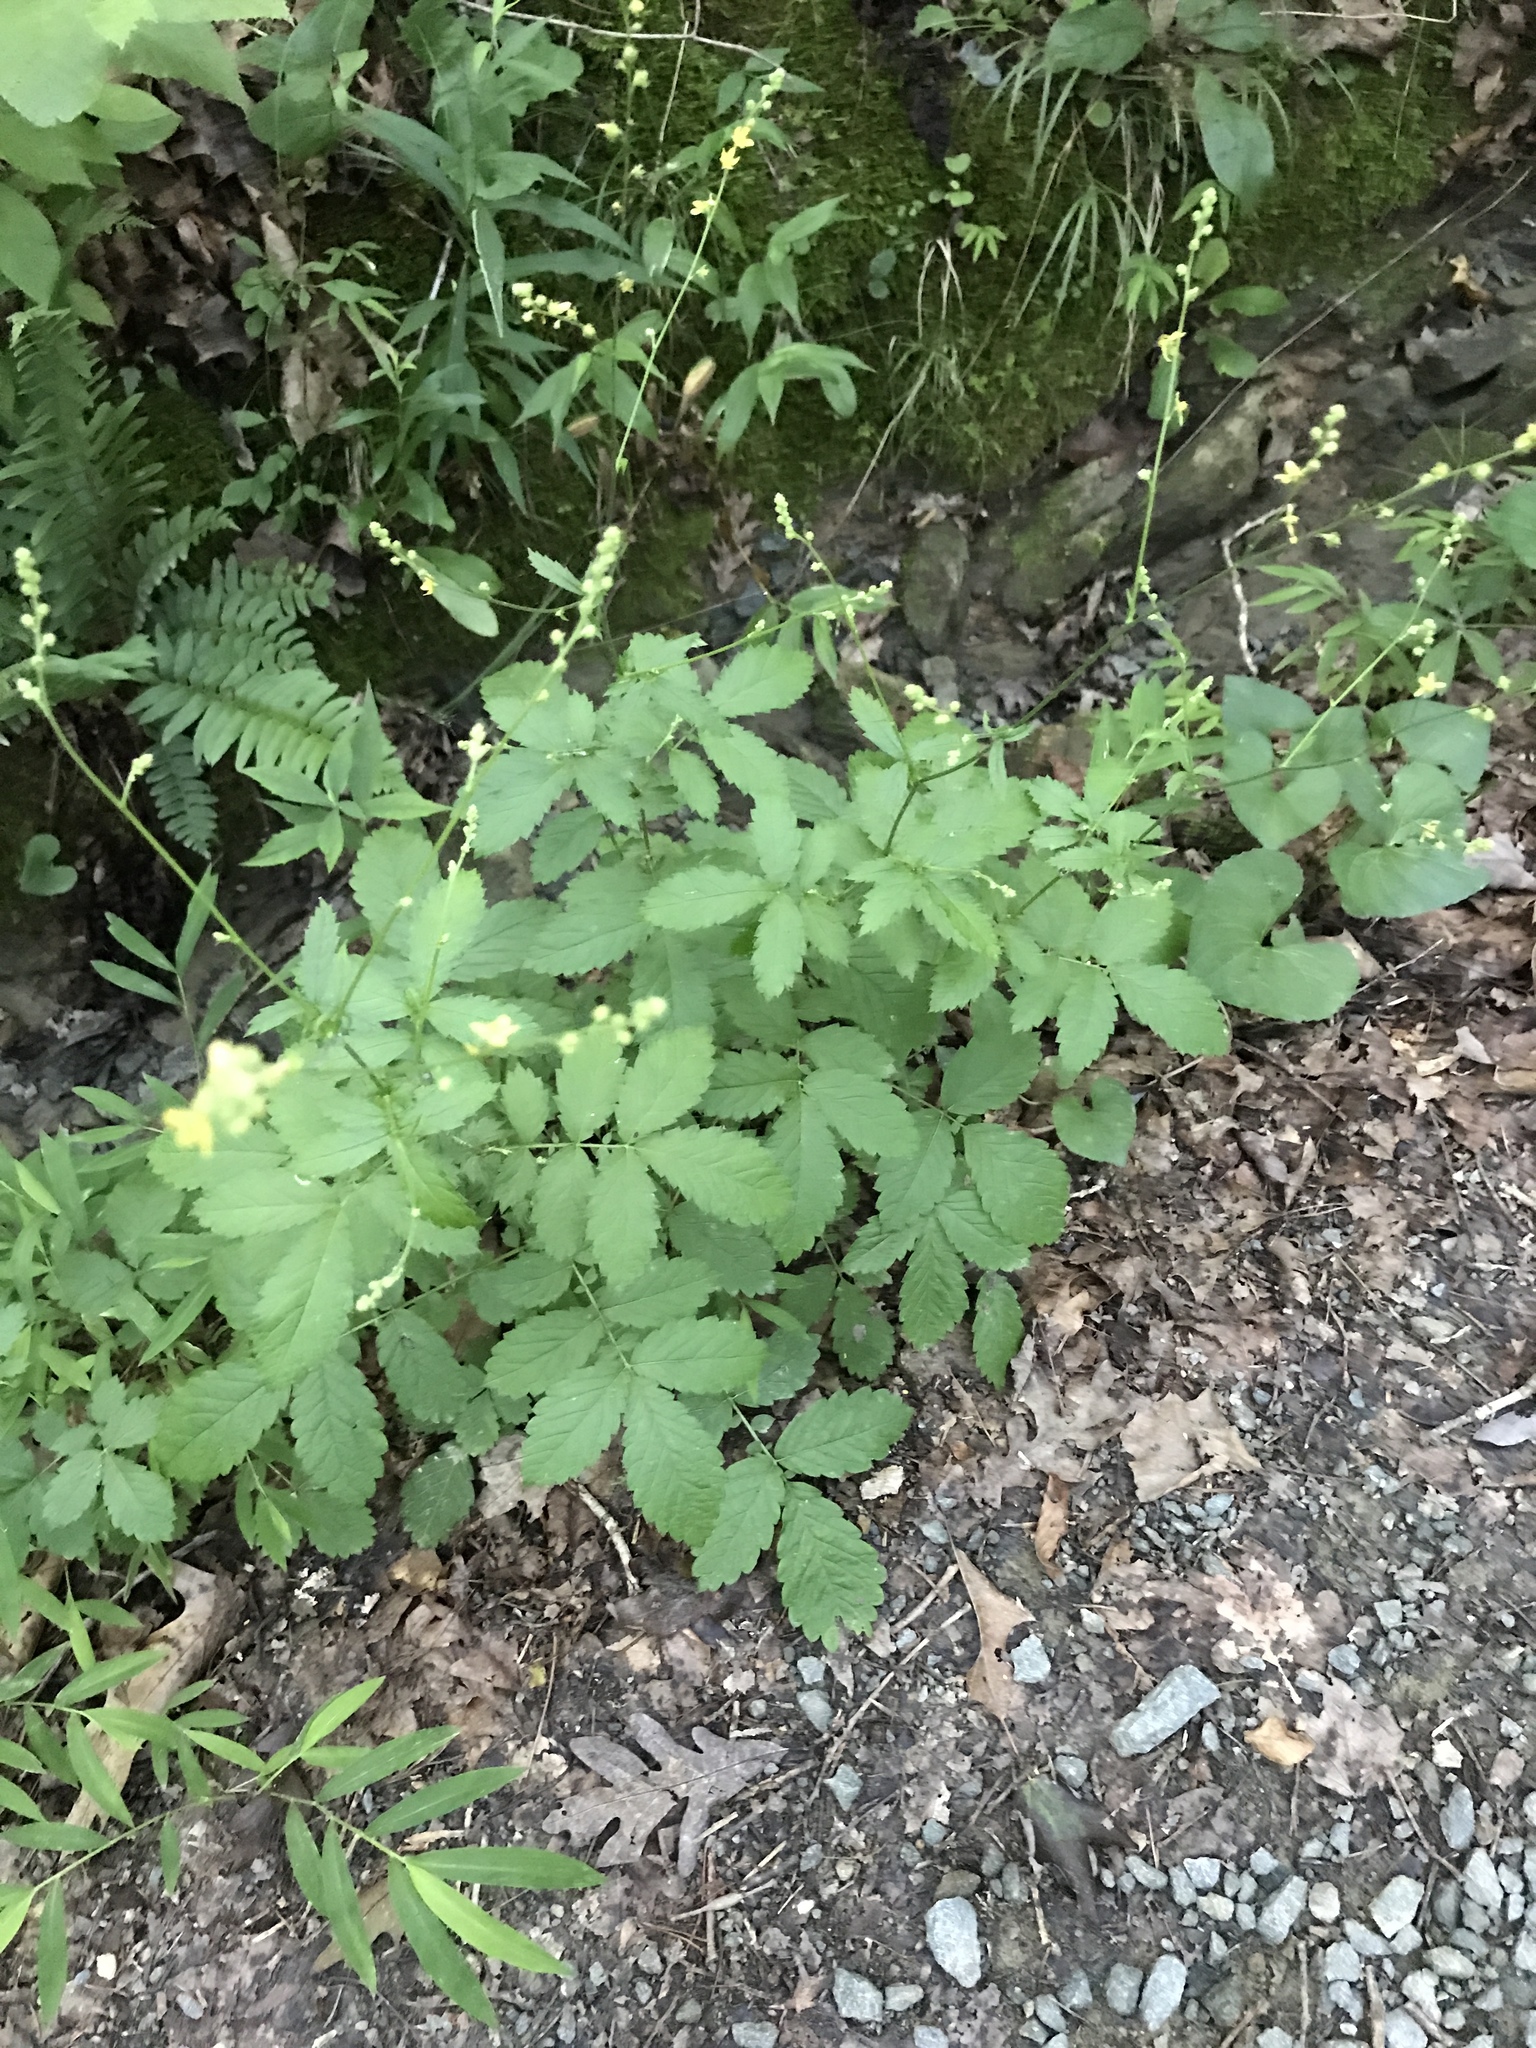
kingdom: Plantae
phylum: Tracheophyta
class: Magnoliopsida
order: Rosales
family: Rosaceae
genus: Agrimonia
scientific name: Agrimonia pubescens
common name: Downy agrimony
